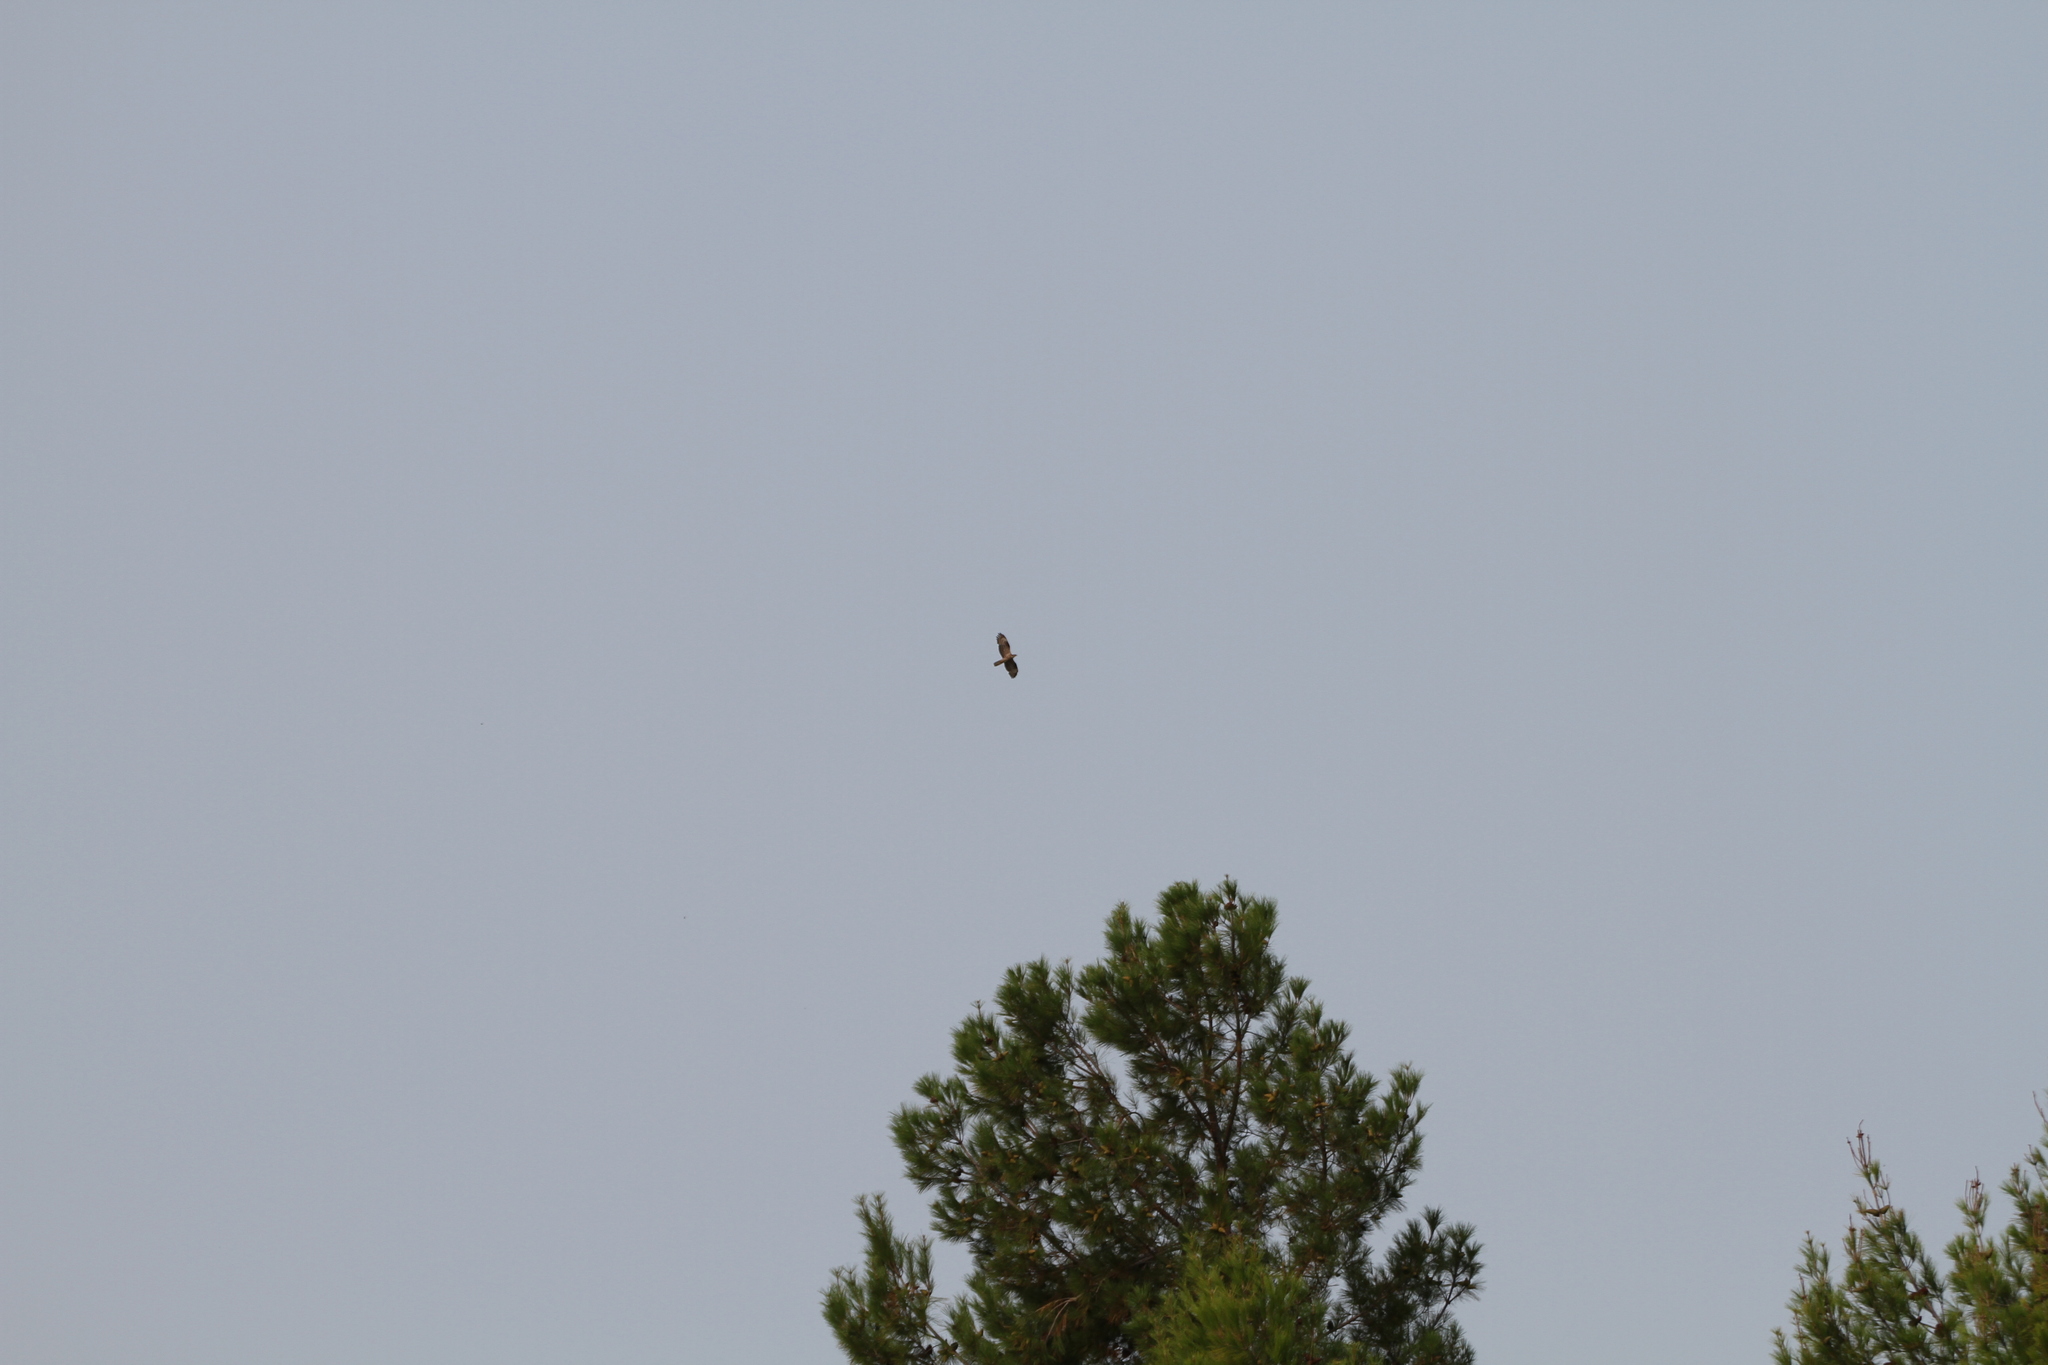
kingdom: Animalia
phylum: Chordata
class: Aves
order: Accipitriformes
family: Accipitridae
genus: Pernis
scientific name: Pernis apivorus
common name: European honey buzzard
